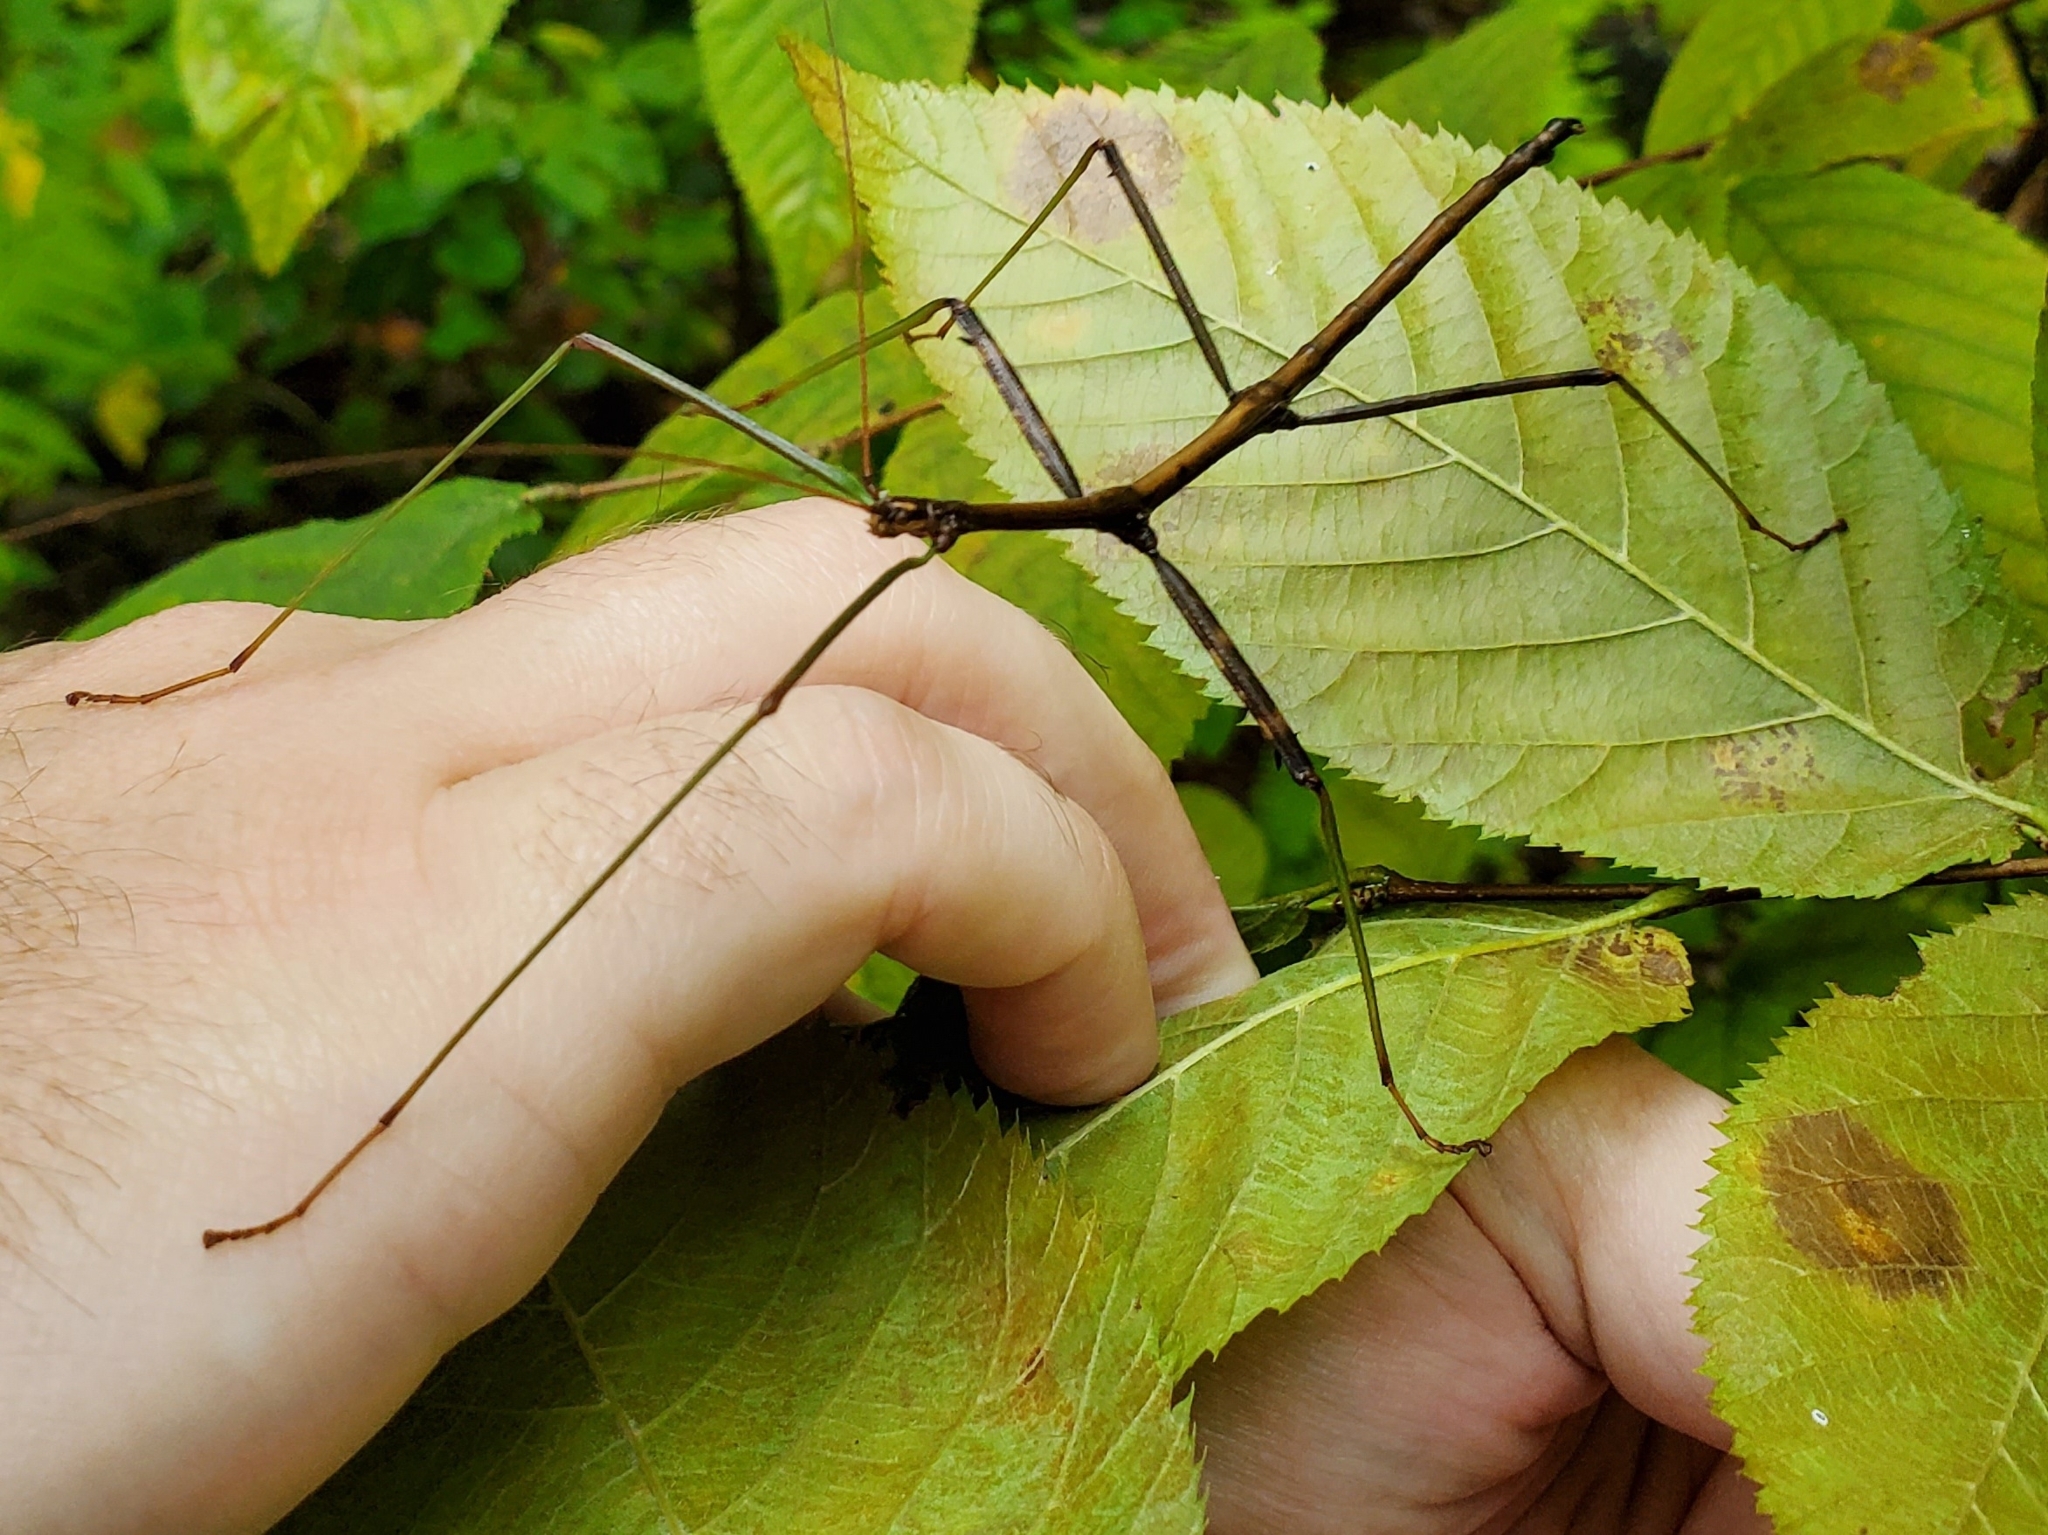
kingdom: Animalia
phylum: Arthropoda
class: Insecta
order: Phasmida
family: Diapheromeridae
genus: Diapheromera
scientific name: Diapheromera femorata
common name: Common american walkingstick
